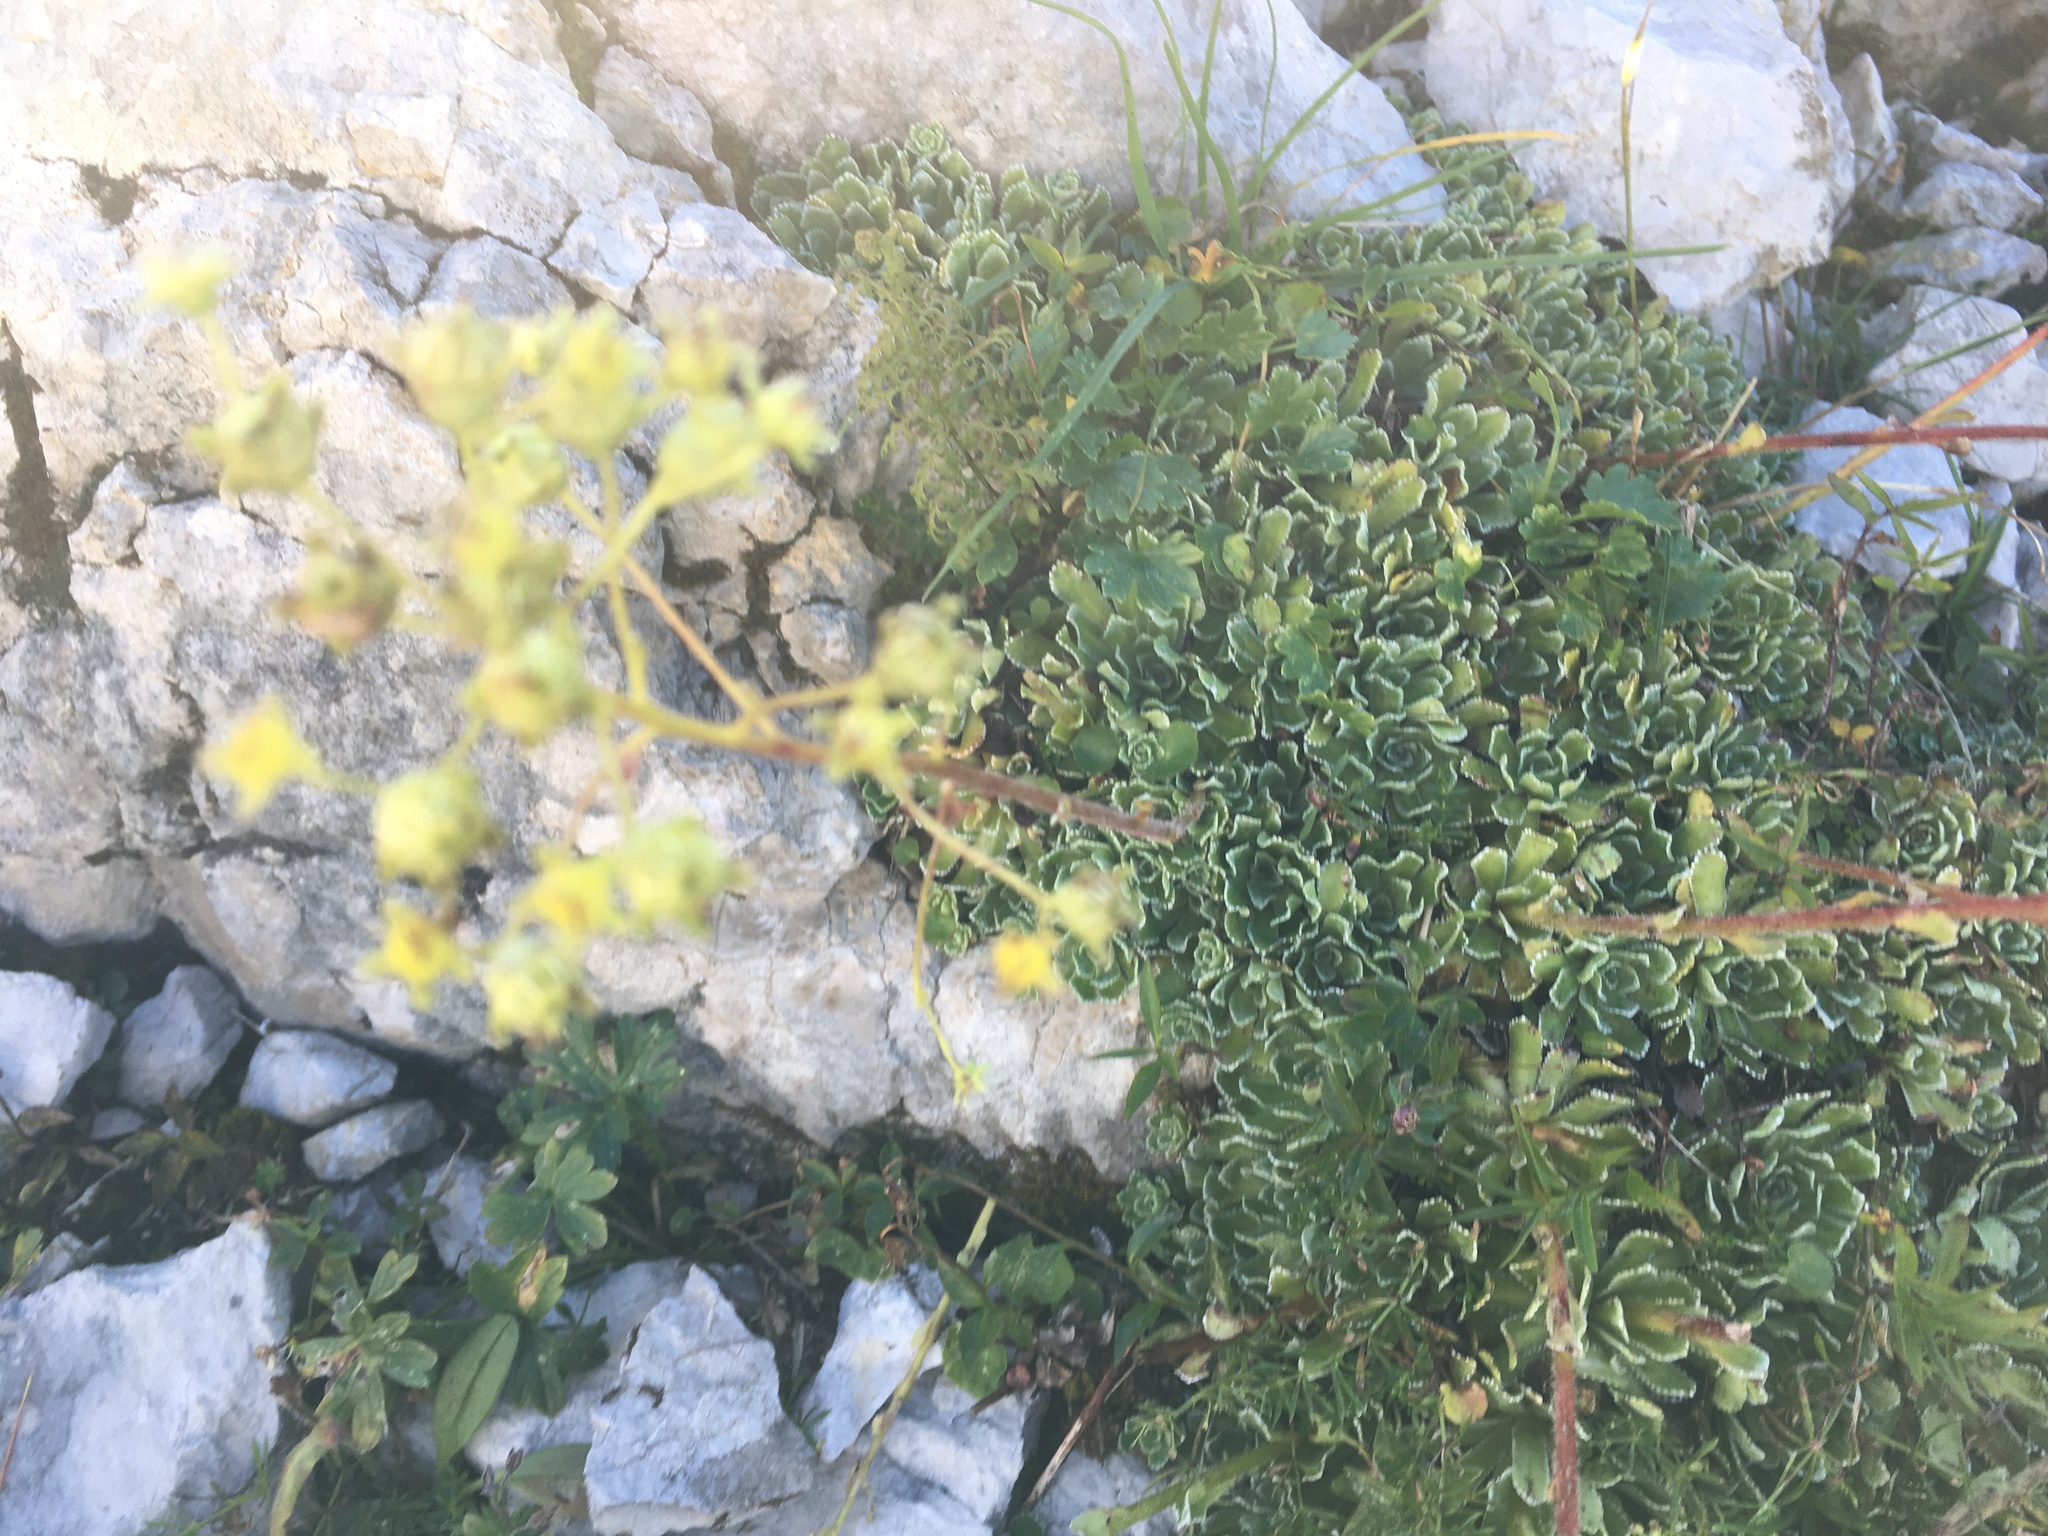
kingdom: Plantae
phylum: Tracheophyta
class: Magnoliopsida
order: Saxifragales
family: Saxifragaceae
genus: Saxifraga
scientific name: Saxifraga paniculata
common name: Livelong saxifrage
